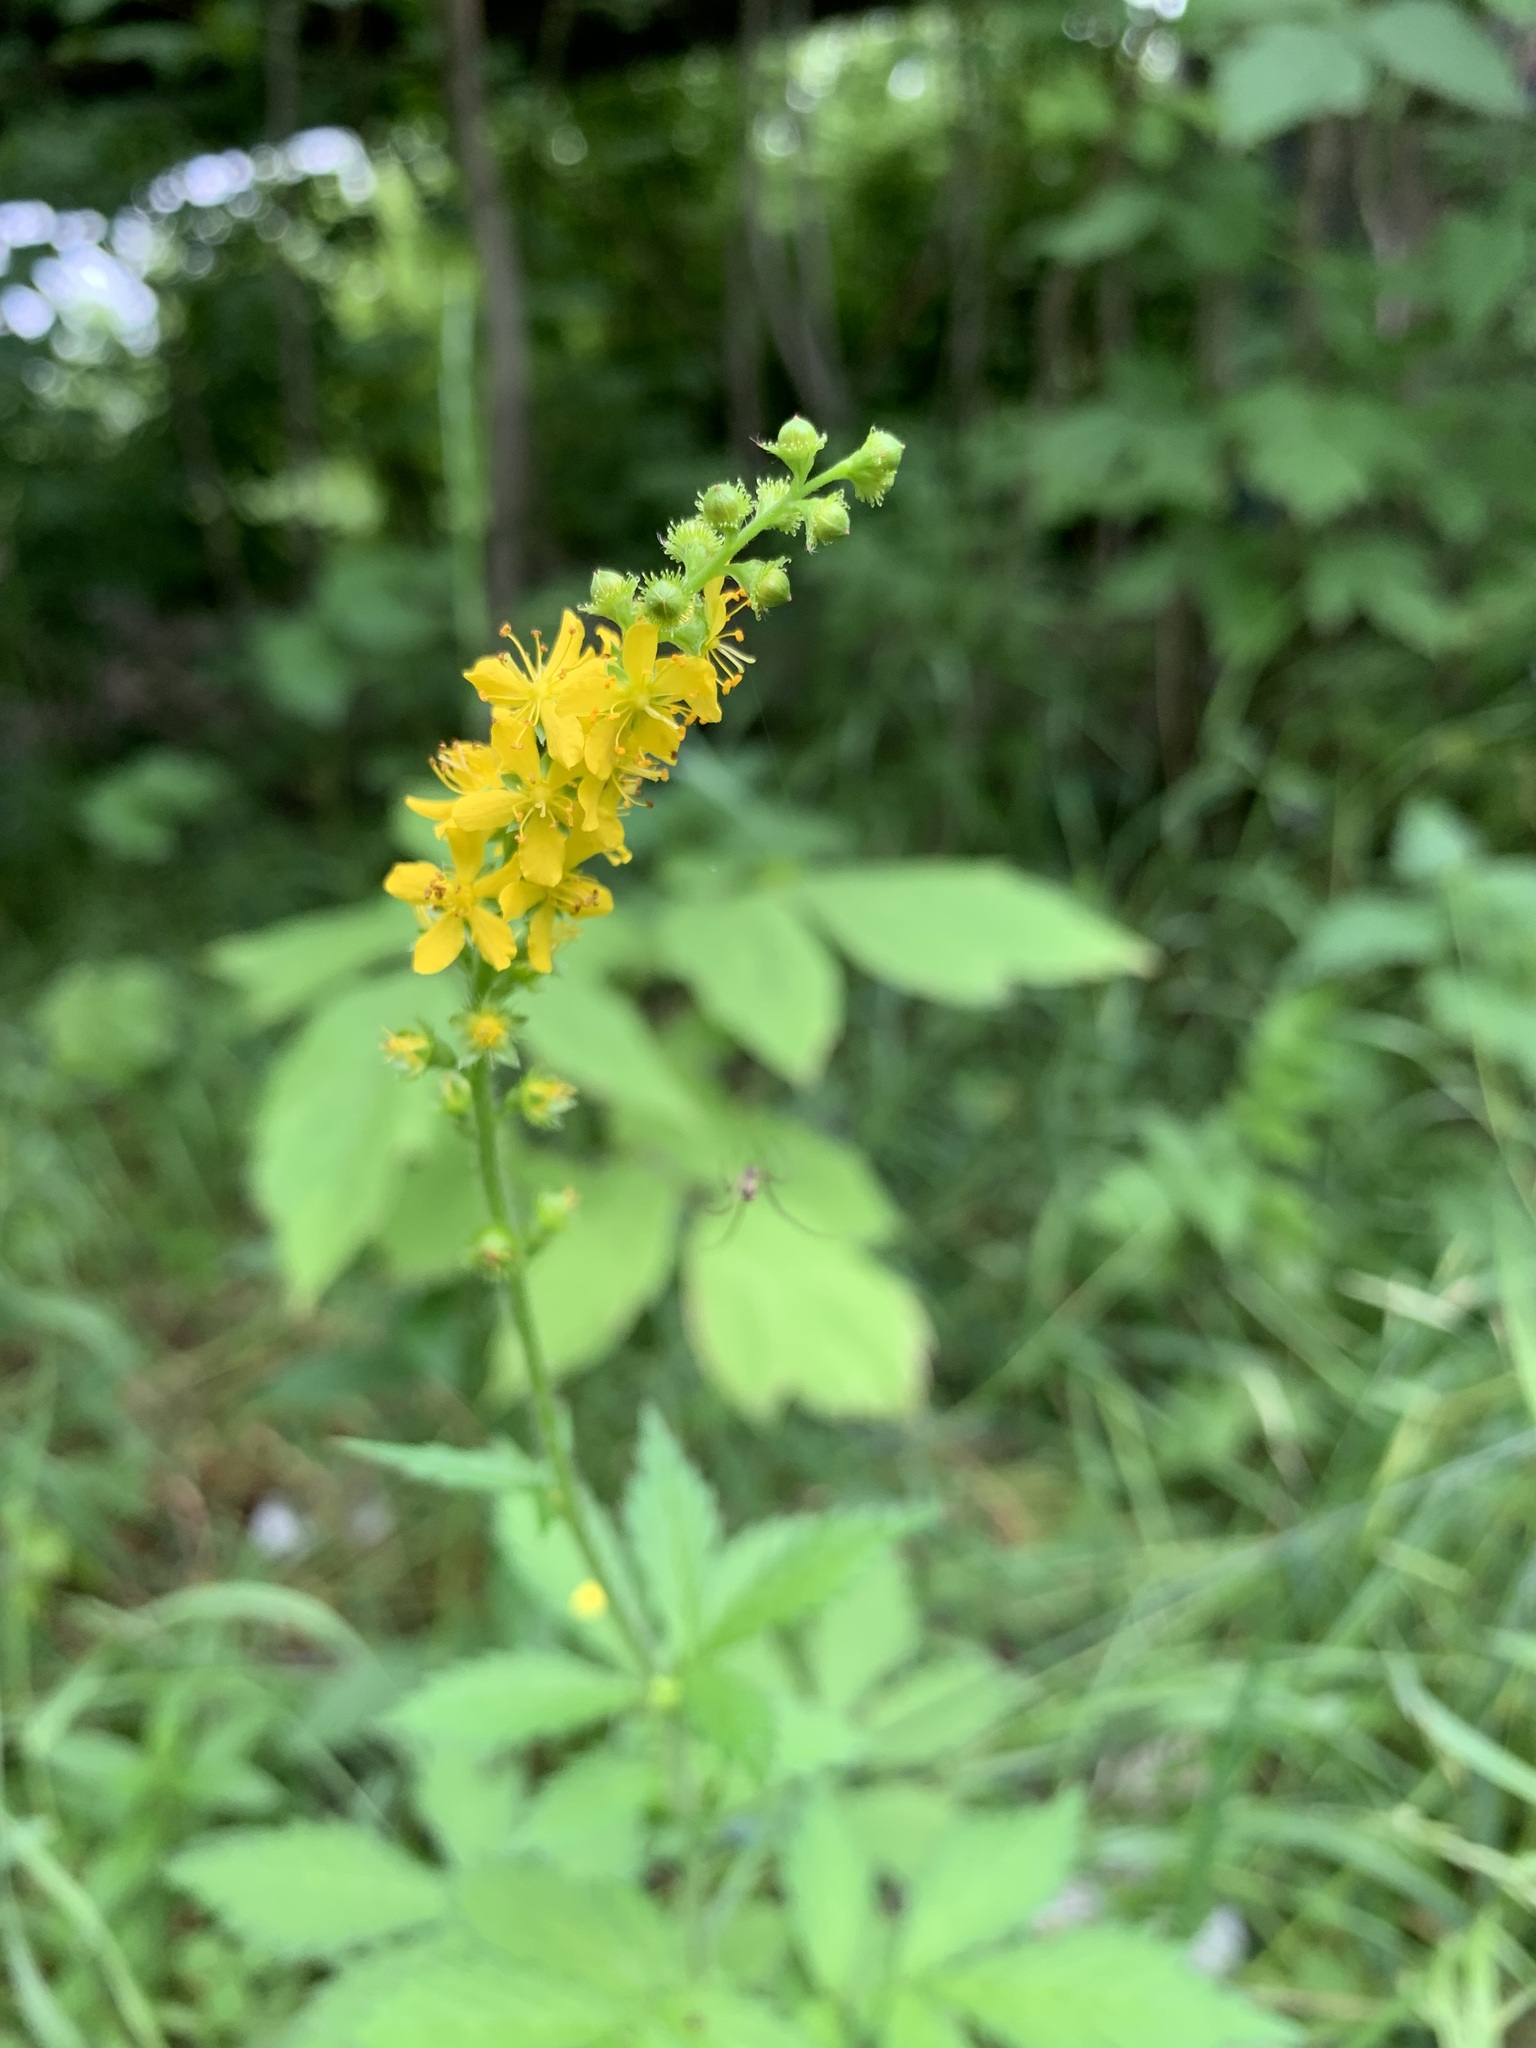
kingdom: Plantae
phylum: Tracheophyta
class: Magnoliopsida
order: Rosales
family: Rosaceae
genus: Agrimonia
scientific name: Agrimonia pilosa
